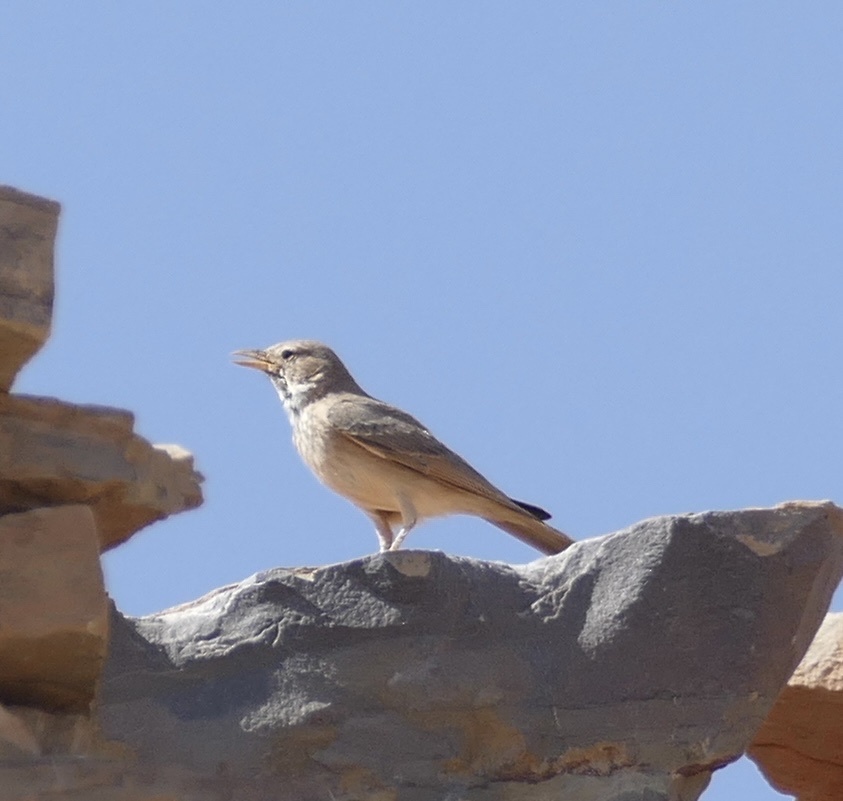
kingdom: Animalia
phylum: Chordata
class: Aves
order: Passeriformes
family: Alaudidae
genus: Ammomanes
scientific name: Ammomanes deserti
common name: Desert lark
